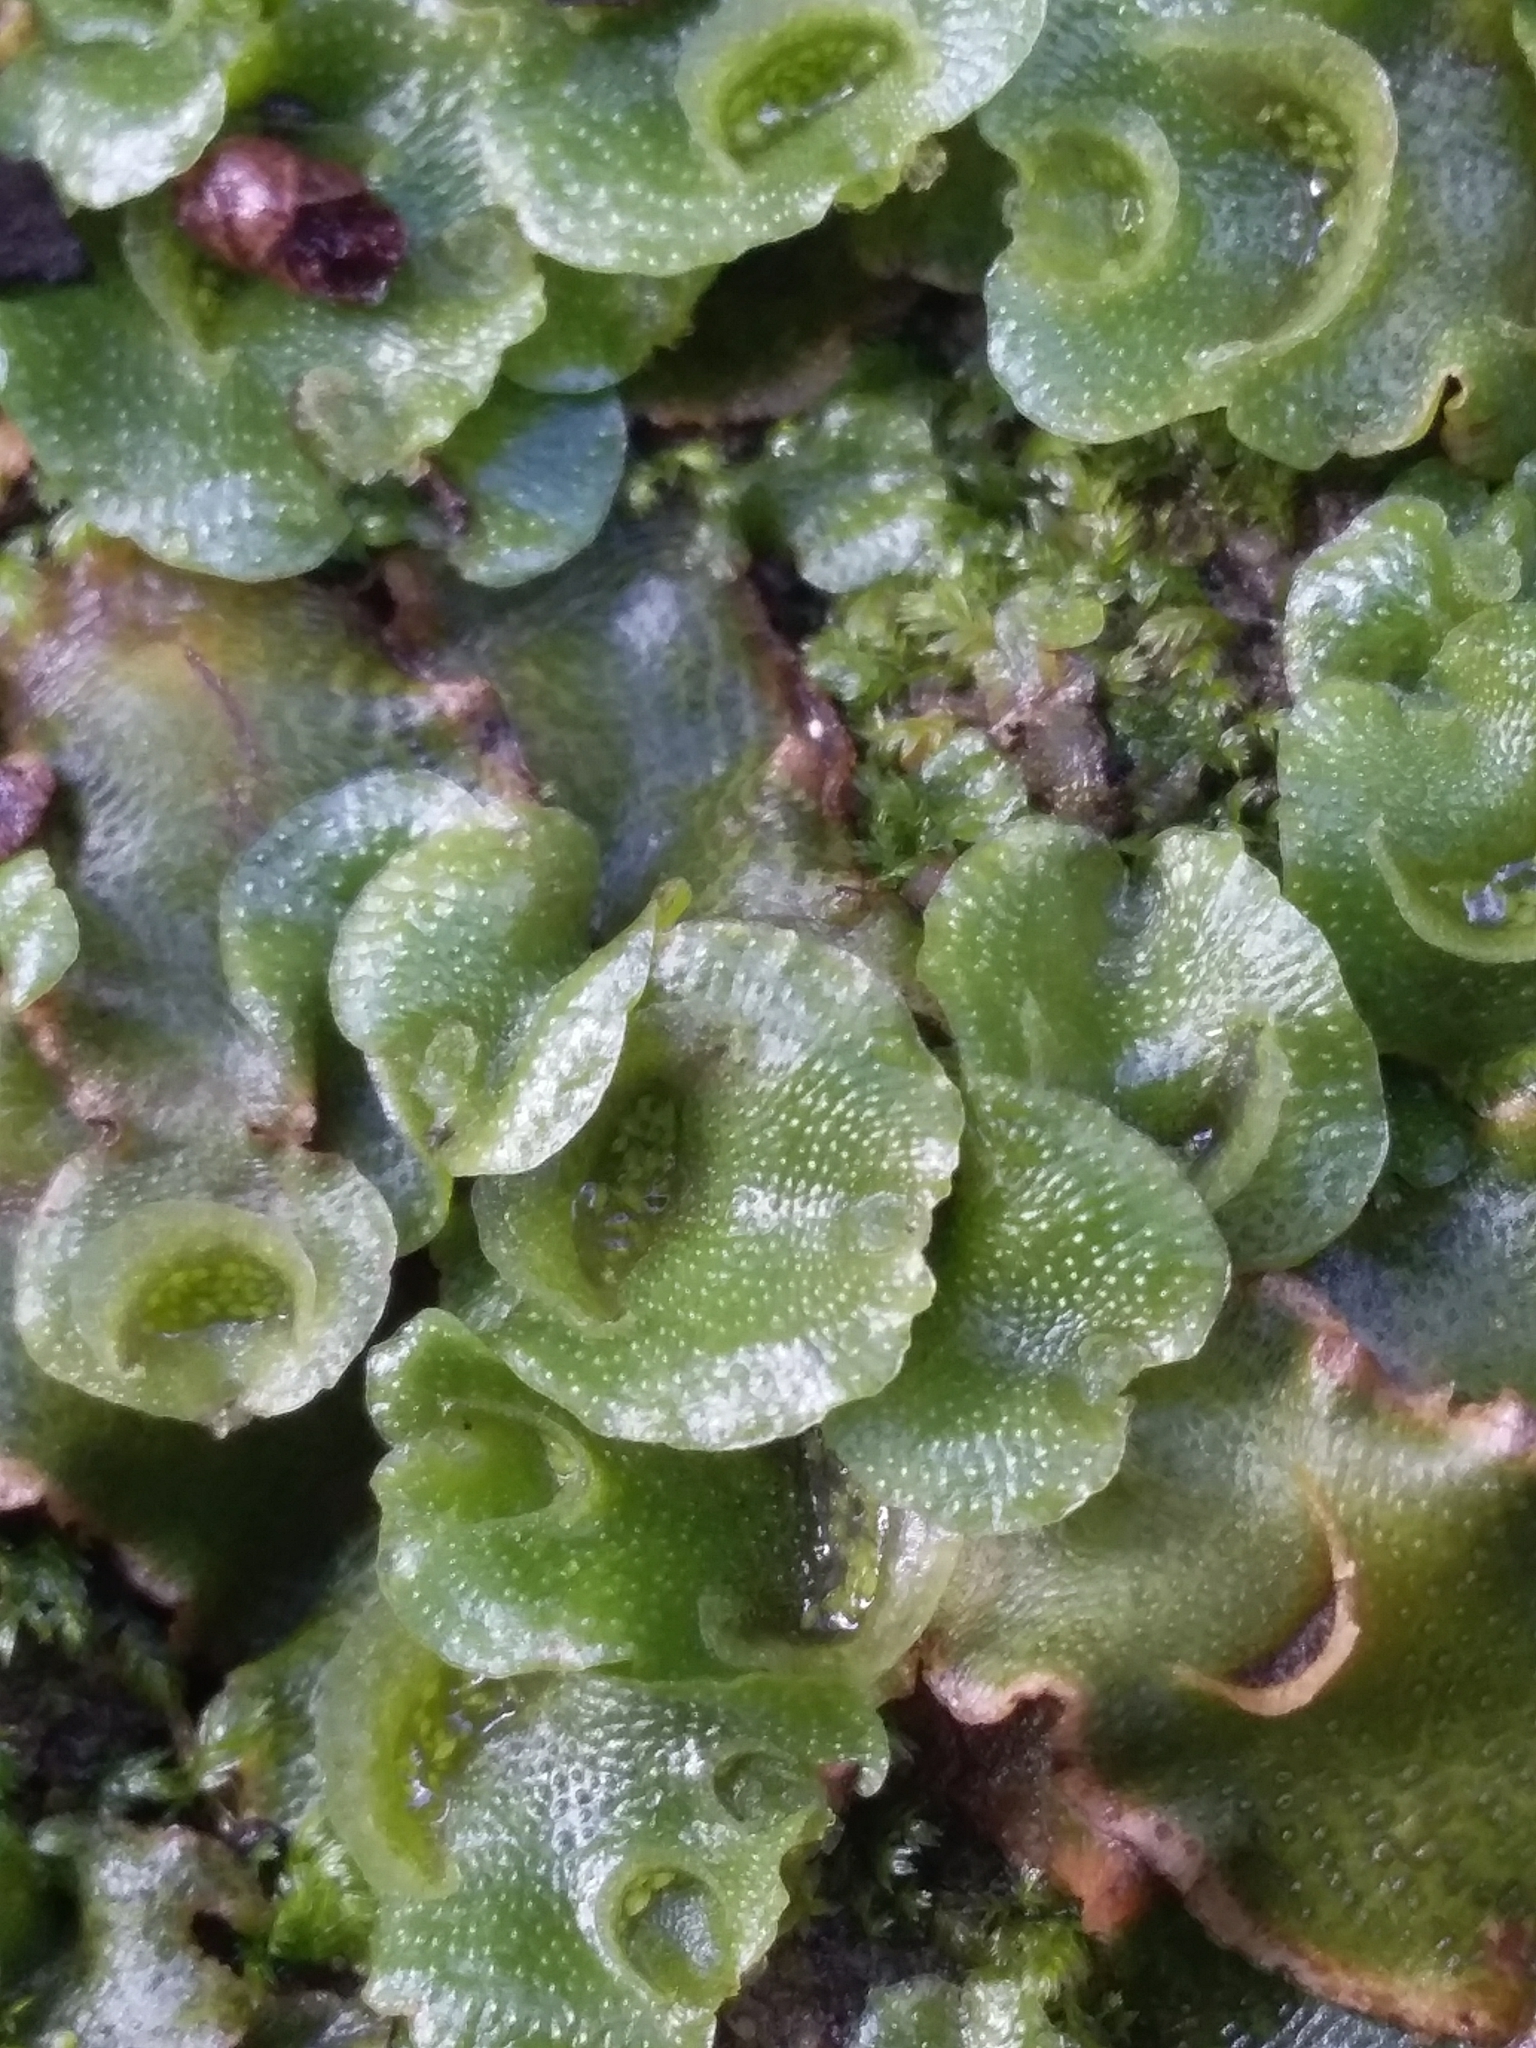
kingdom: Plantae
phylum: Marchantiophyta
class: Marchantiopsida
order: Lunulariales
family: Lunulariaceae
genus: Lunularia
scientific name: Lunularia cruciata
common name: Crescent-cup liverwort
